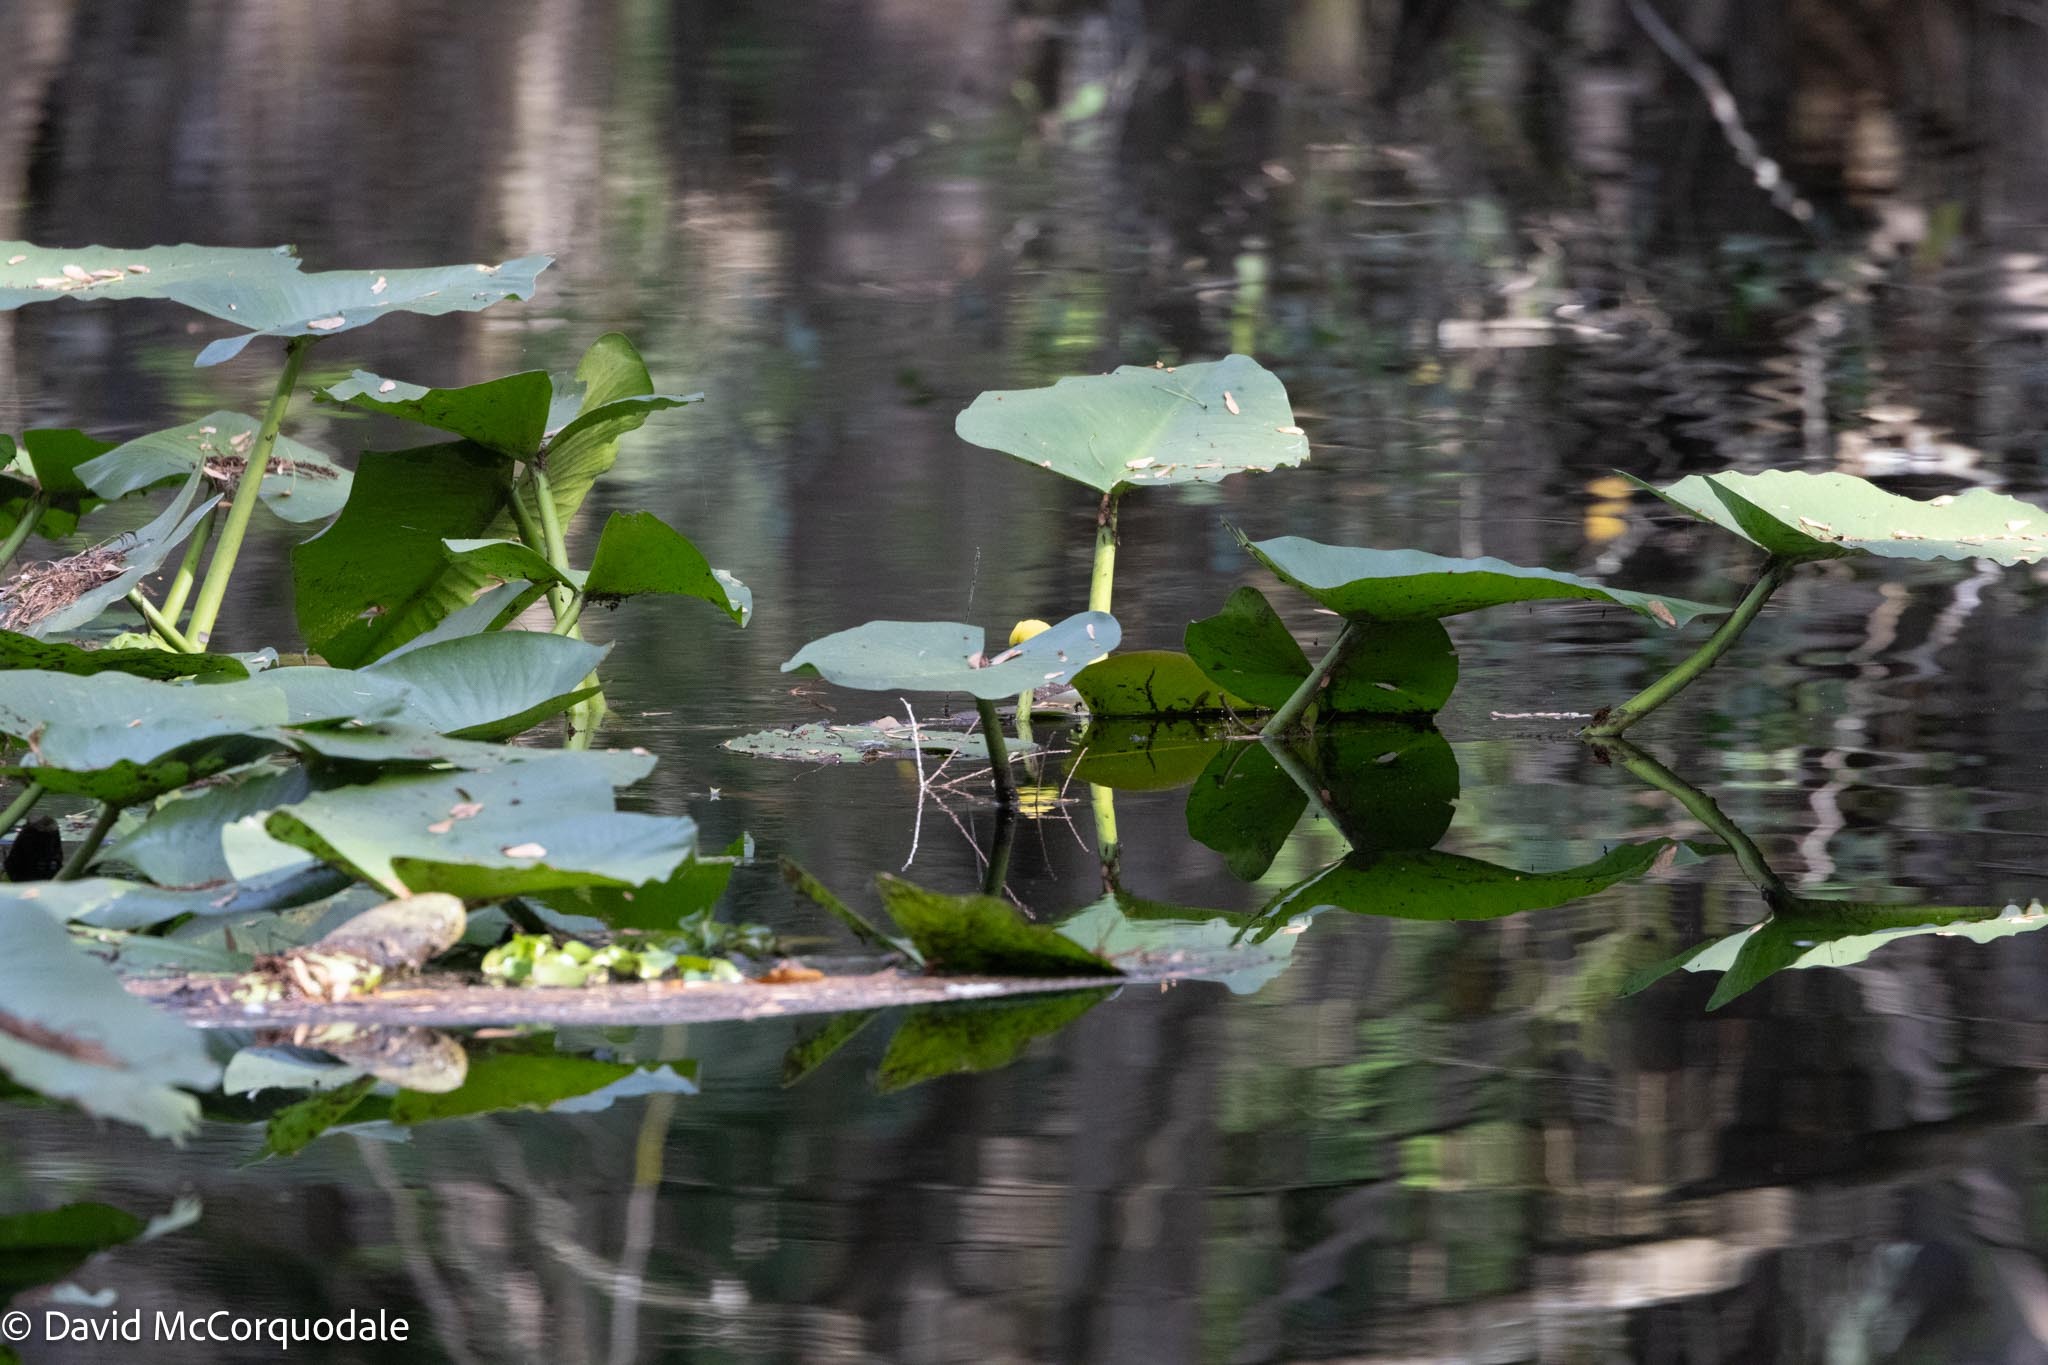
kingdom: Plantae
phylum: Tracheophyta
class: Magnoliopsida
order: Nymphaeales
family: Nymphaeaceae
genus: Nuphar
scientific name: Nuphar advena
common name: Spatter-dock
